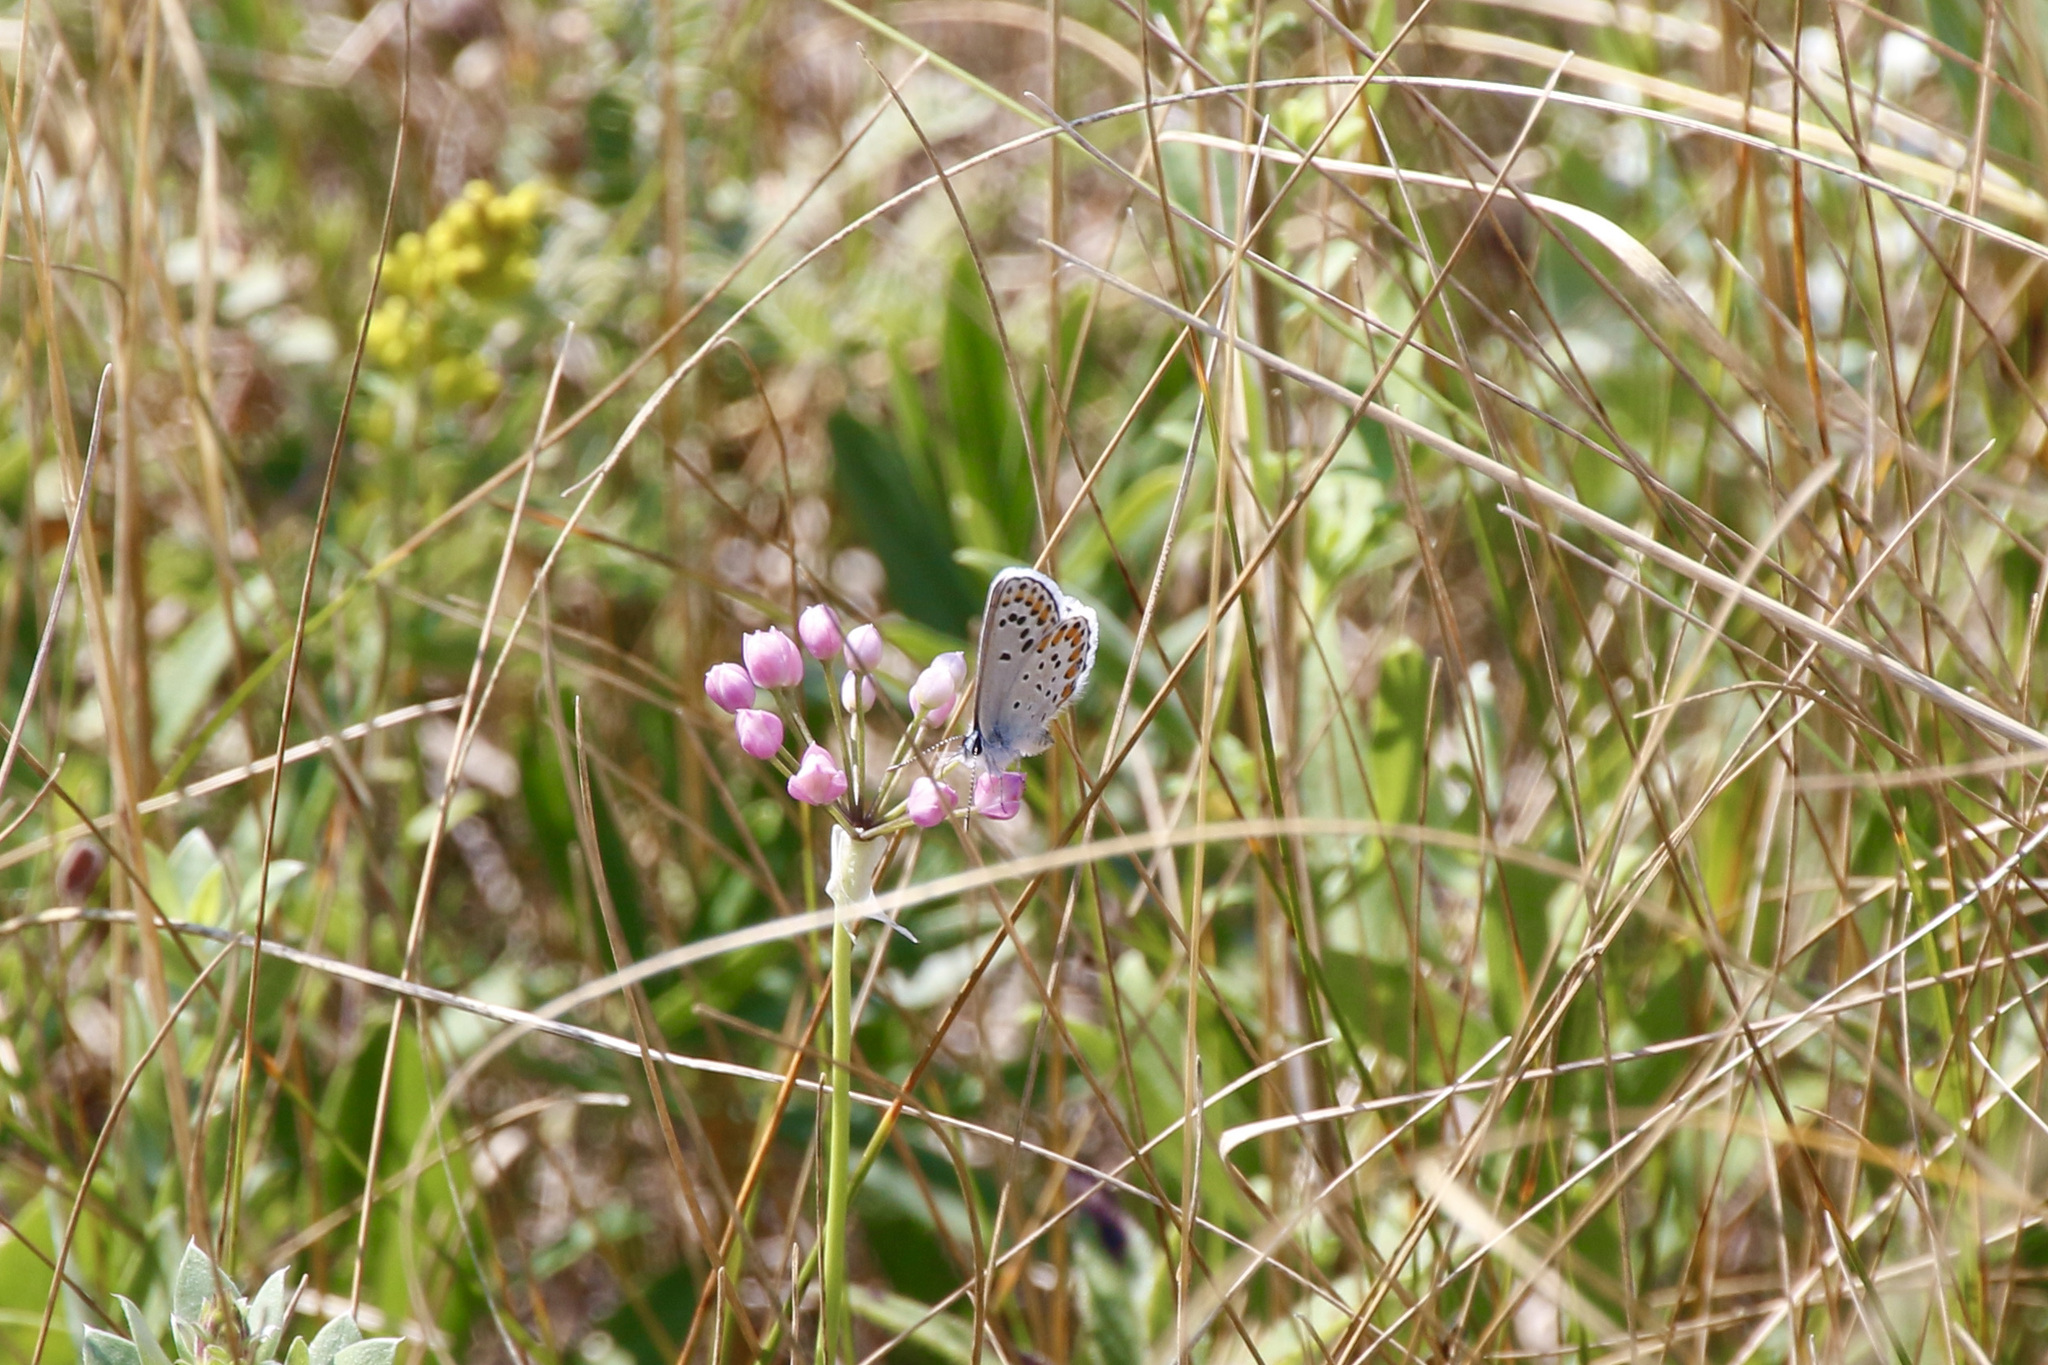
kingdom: Animalia
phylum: Arthropoda
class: Insecta
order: Lepidoptera
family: Lycaenidae
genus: Lycaeides
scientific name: Lycaeides melissa
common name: Melissa blue
